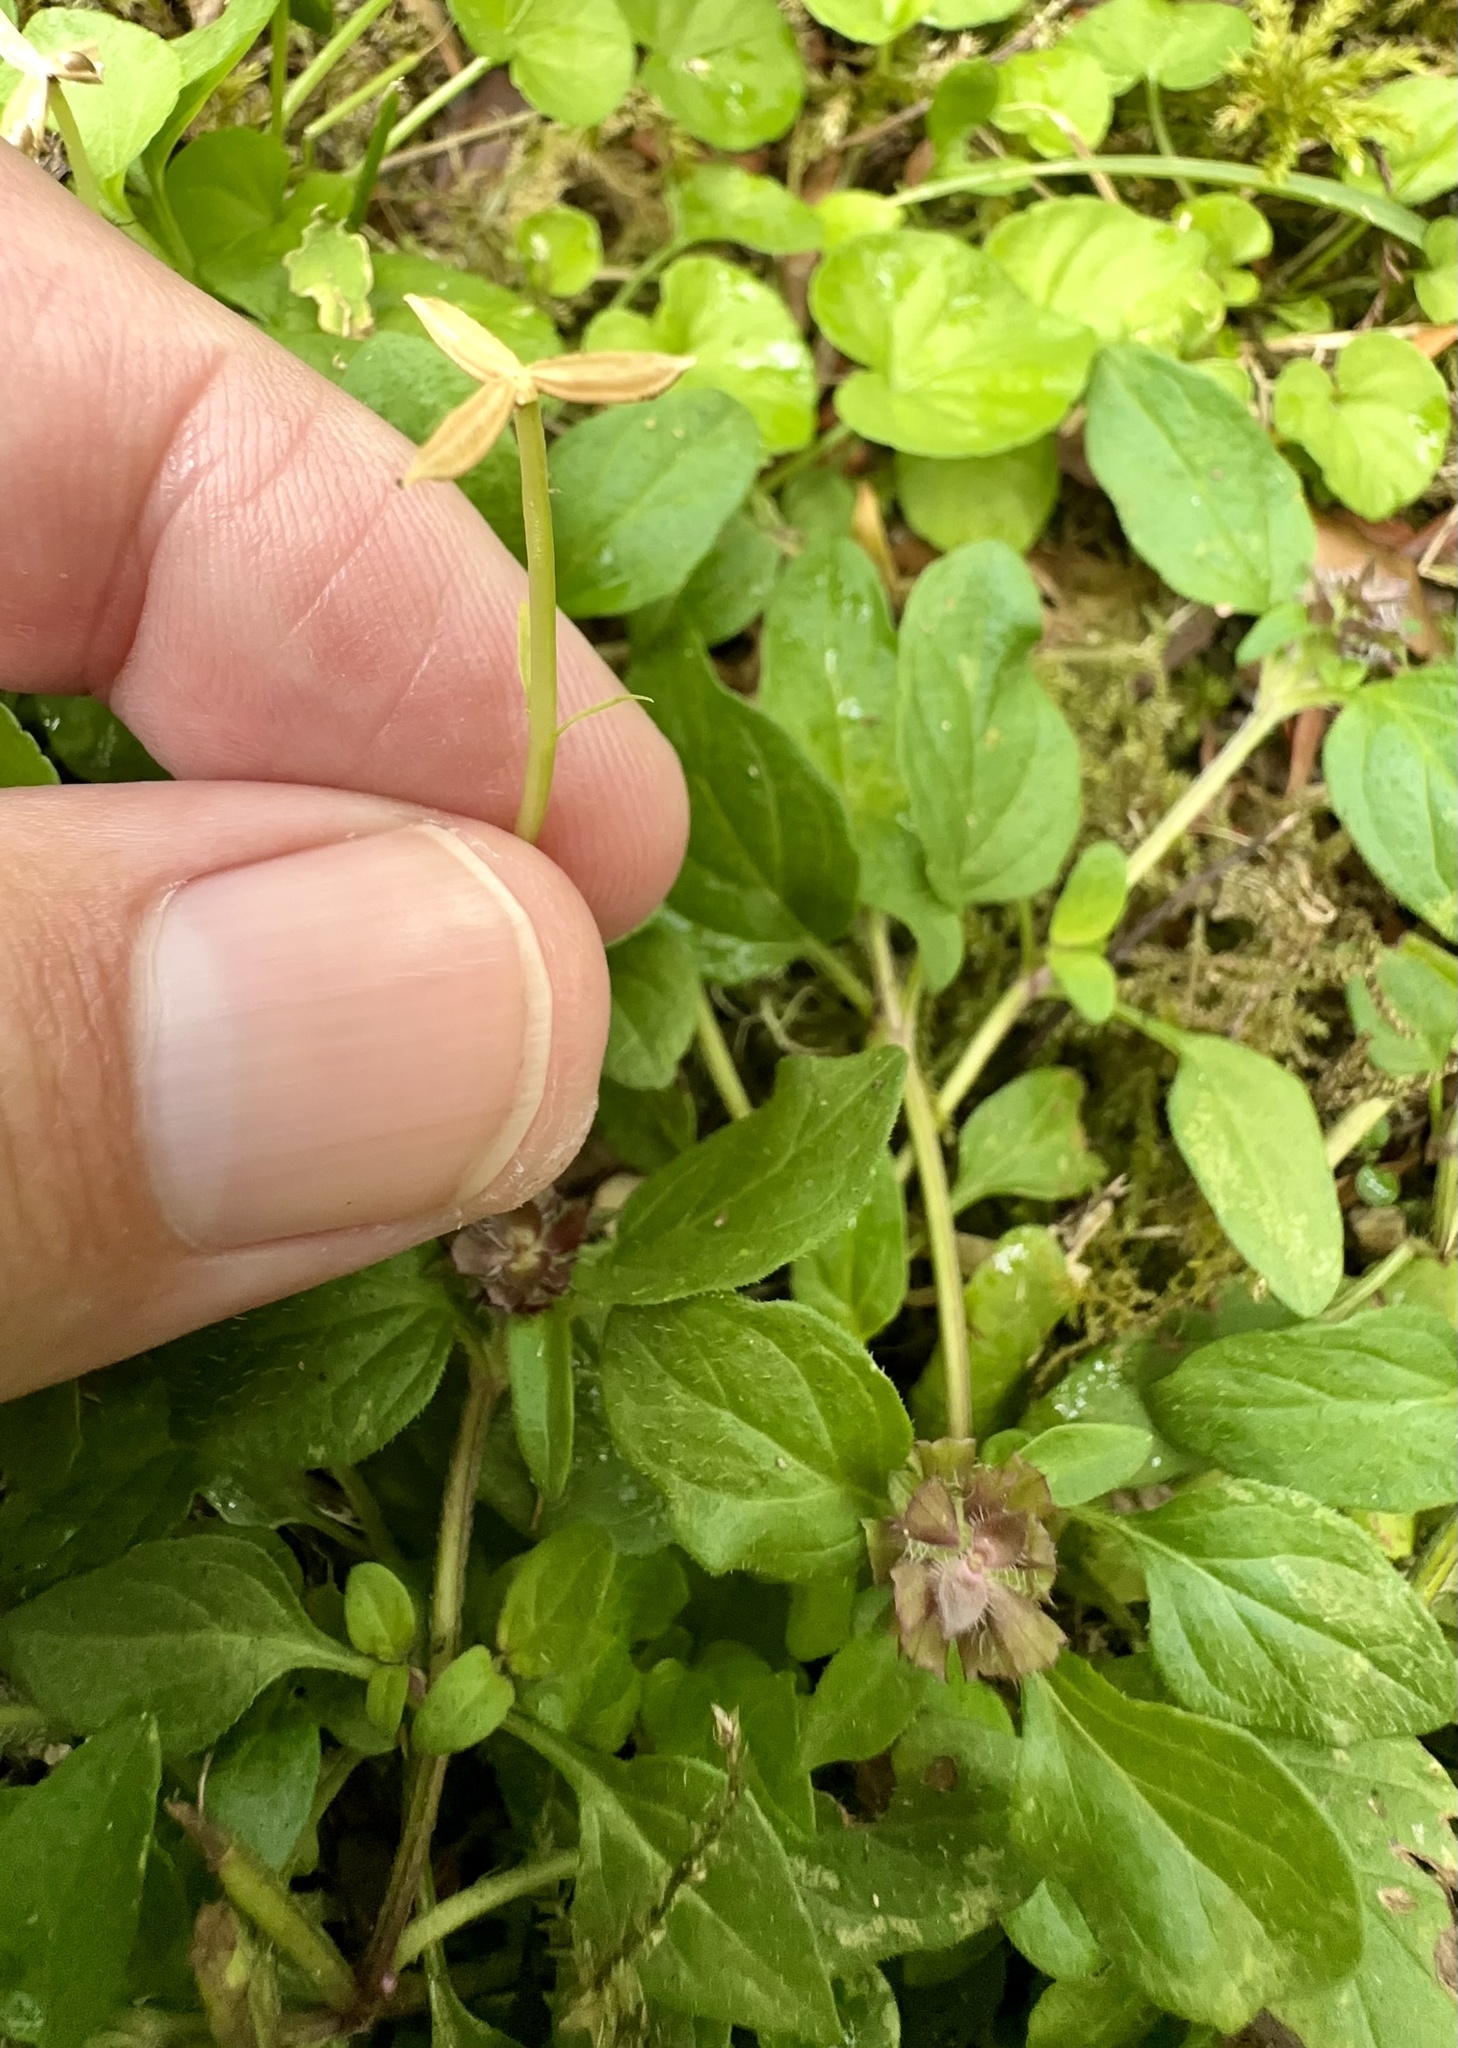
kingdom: Plantae
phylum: Tracheophyta
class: Magnoliopsida
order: Malpighiales
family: Violaceae
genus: Viola
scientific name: Viola cunninghamii
